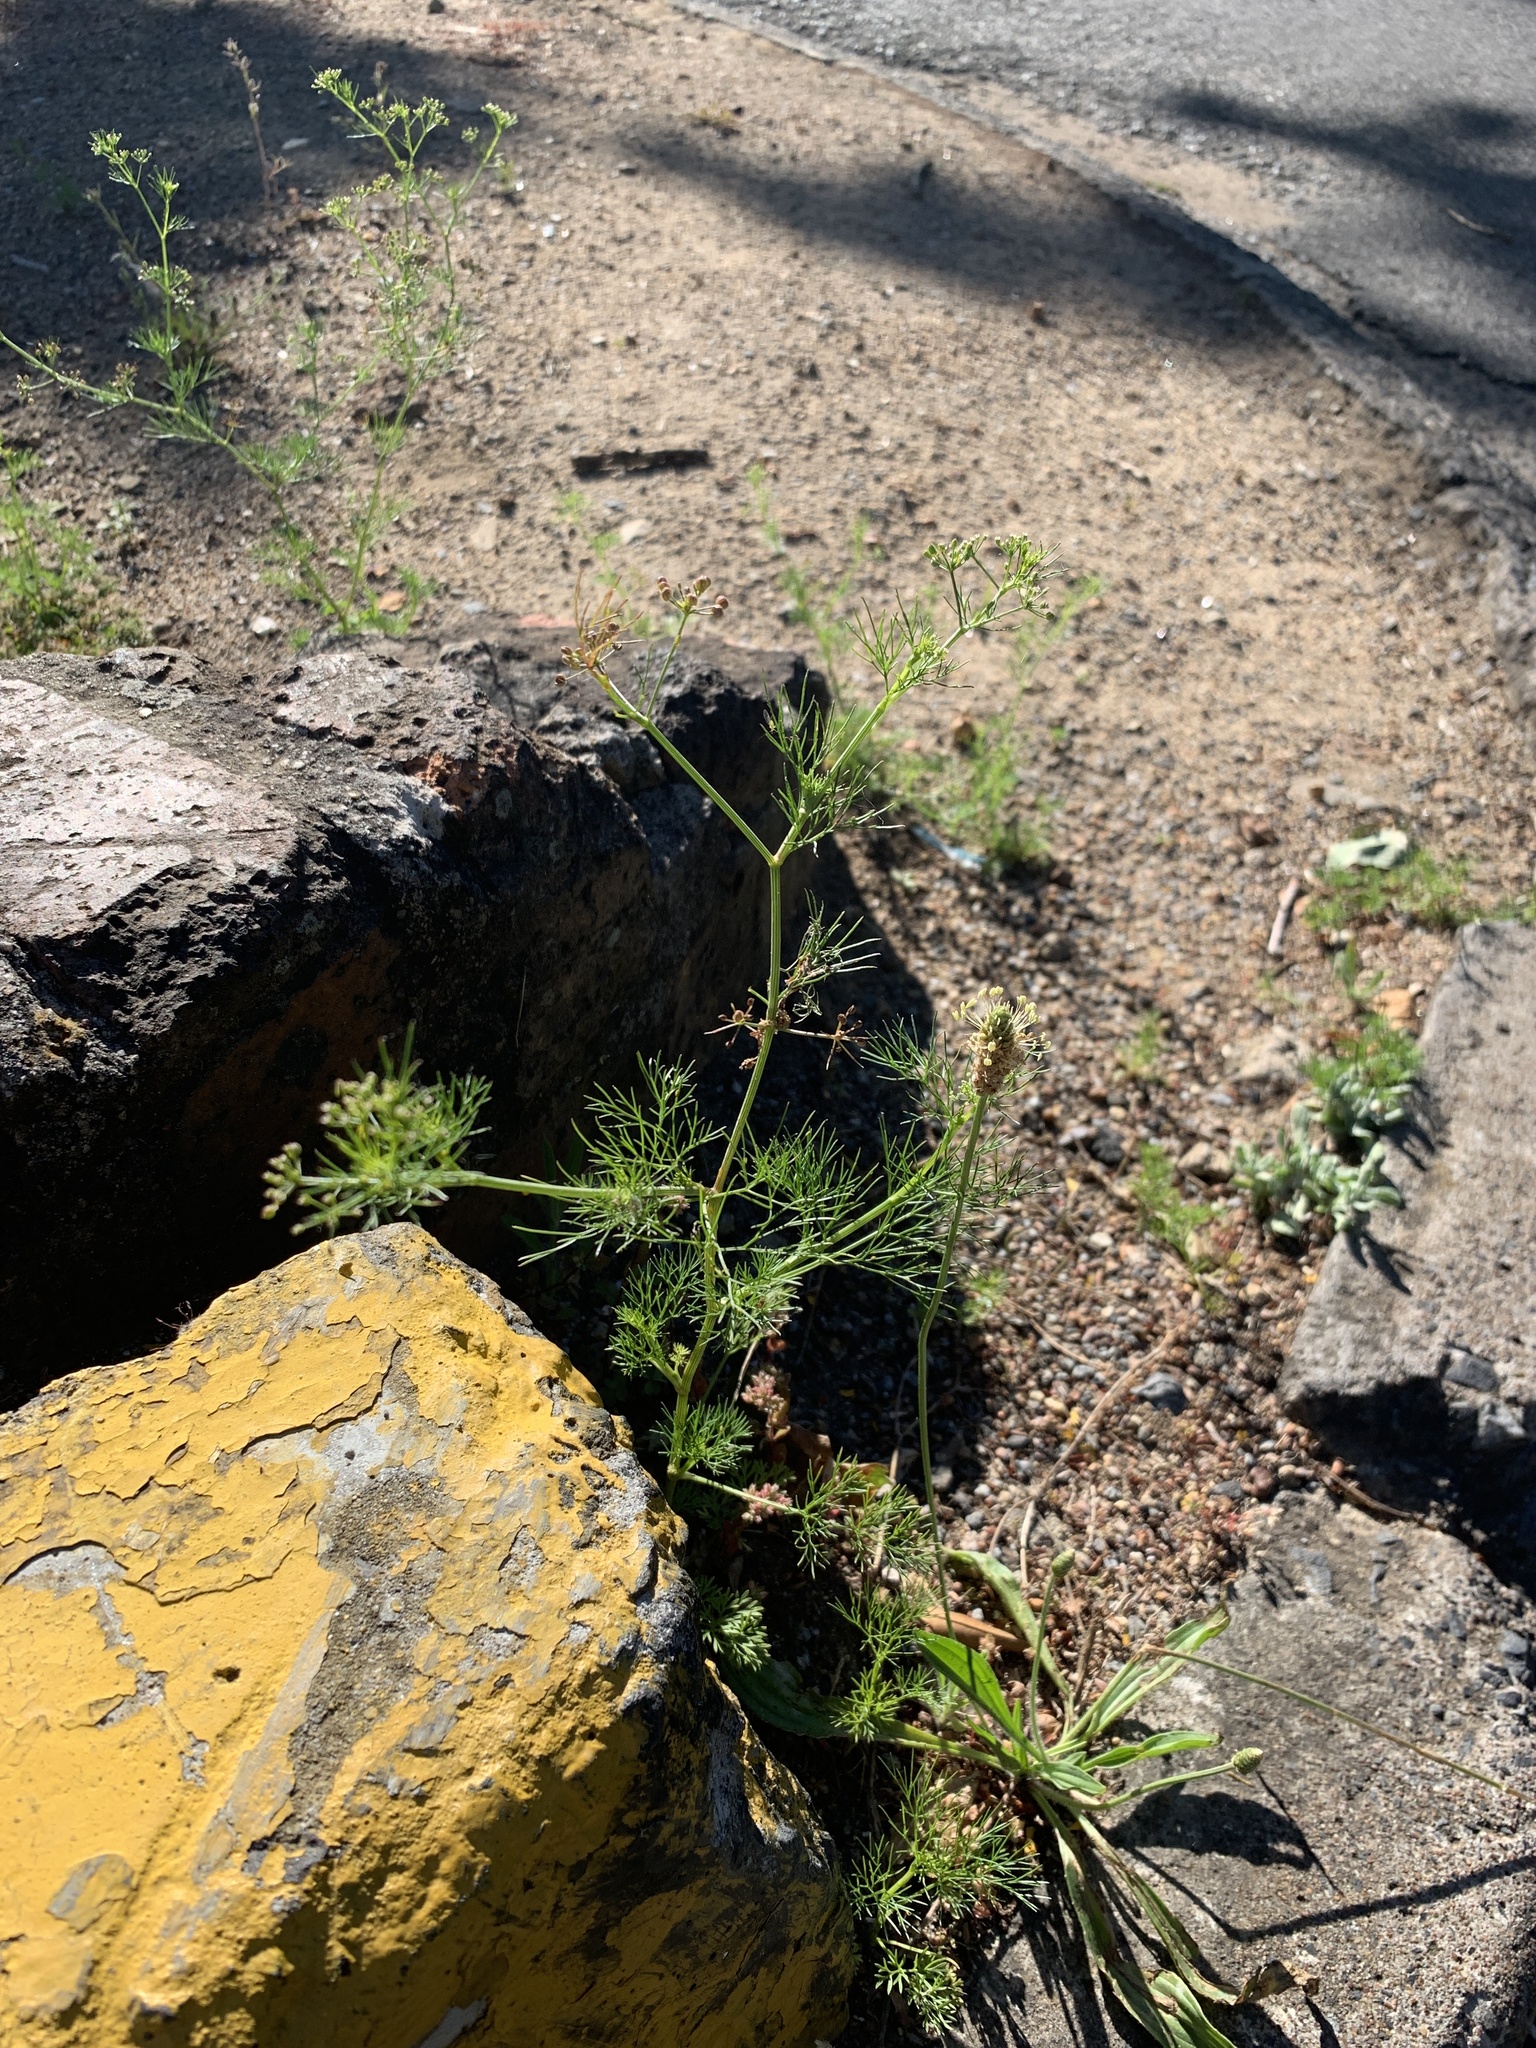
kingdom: Plantae
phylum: Tracheophyta
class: Magnoliopsida
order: Apiales
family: Apiaceae
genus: Cyclospermum
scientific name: Cyclospermum leptophyllum
